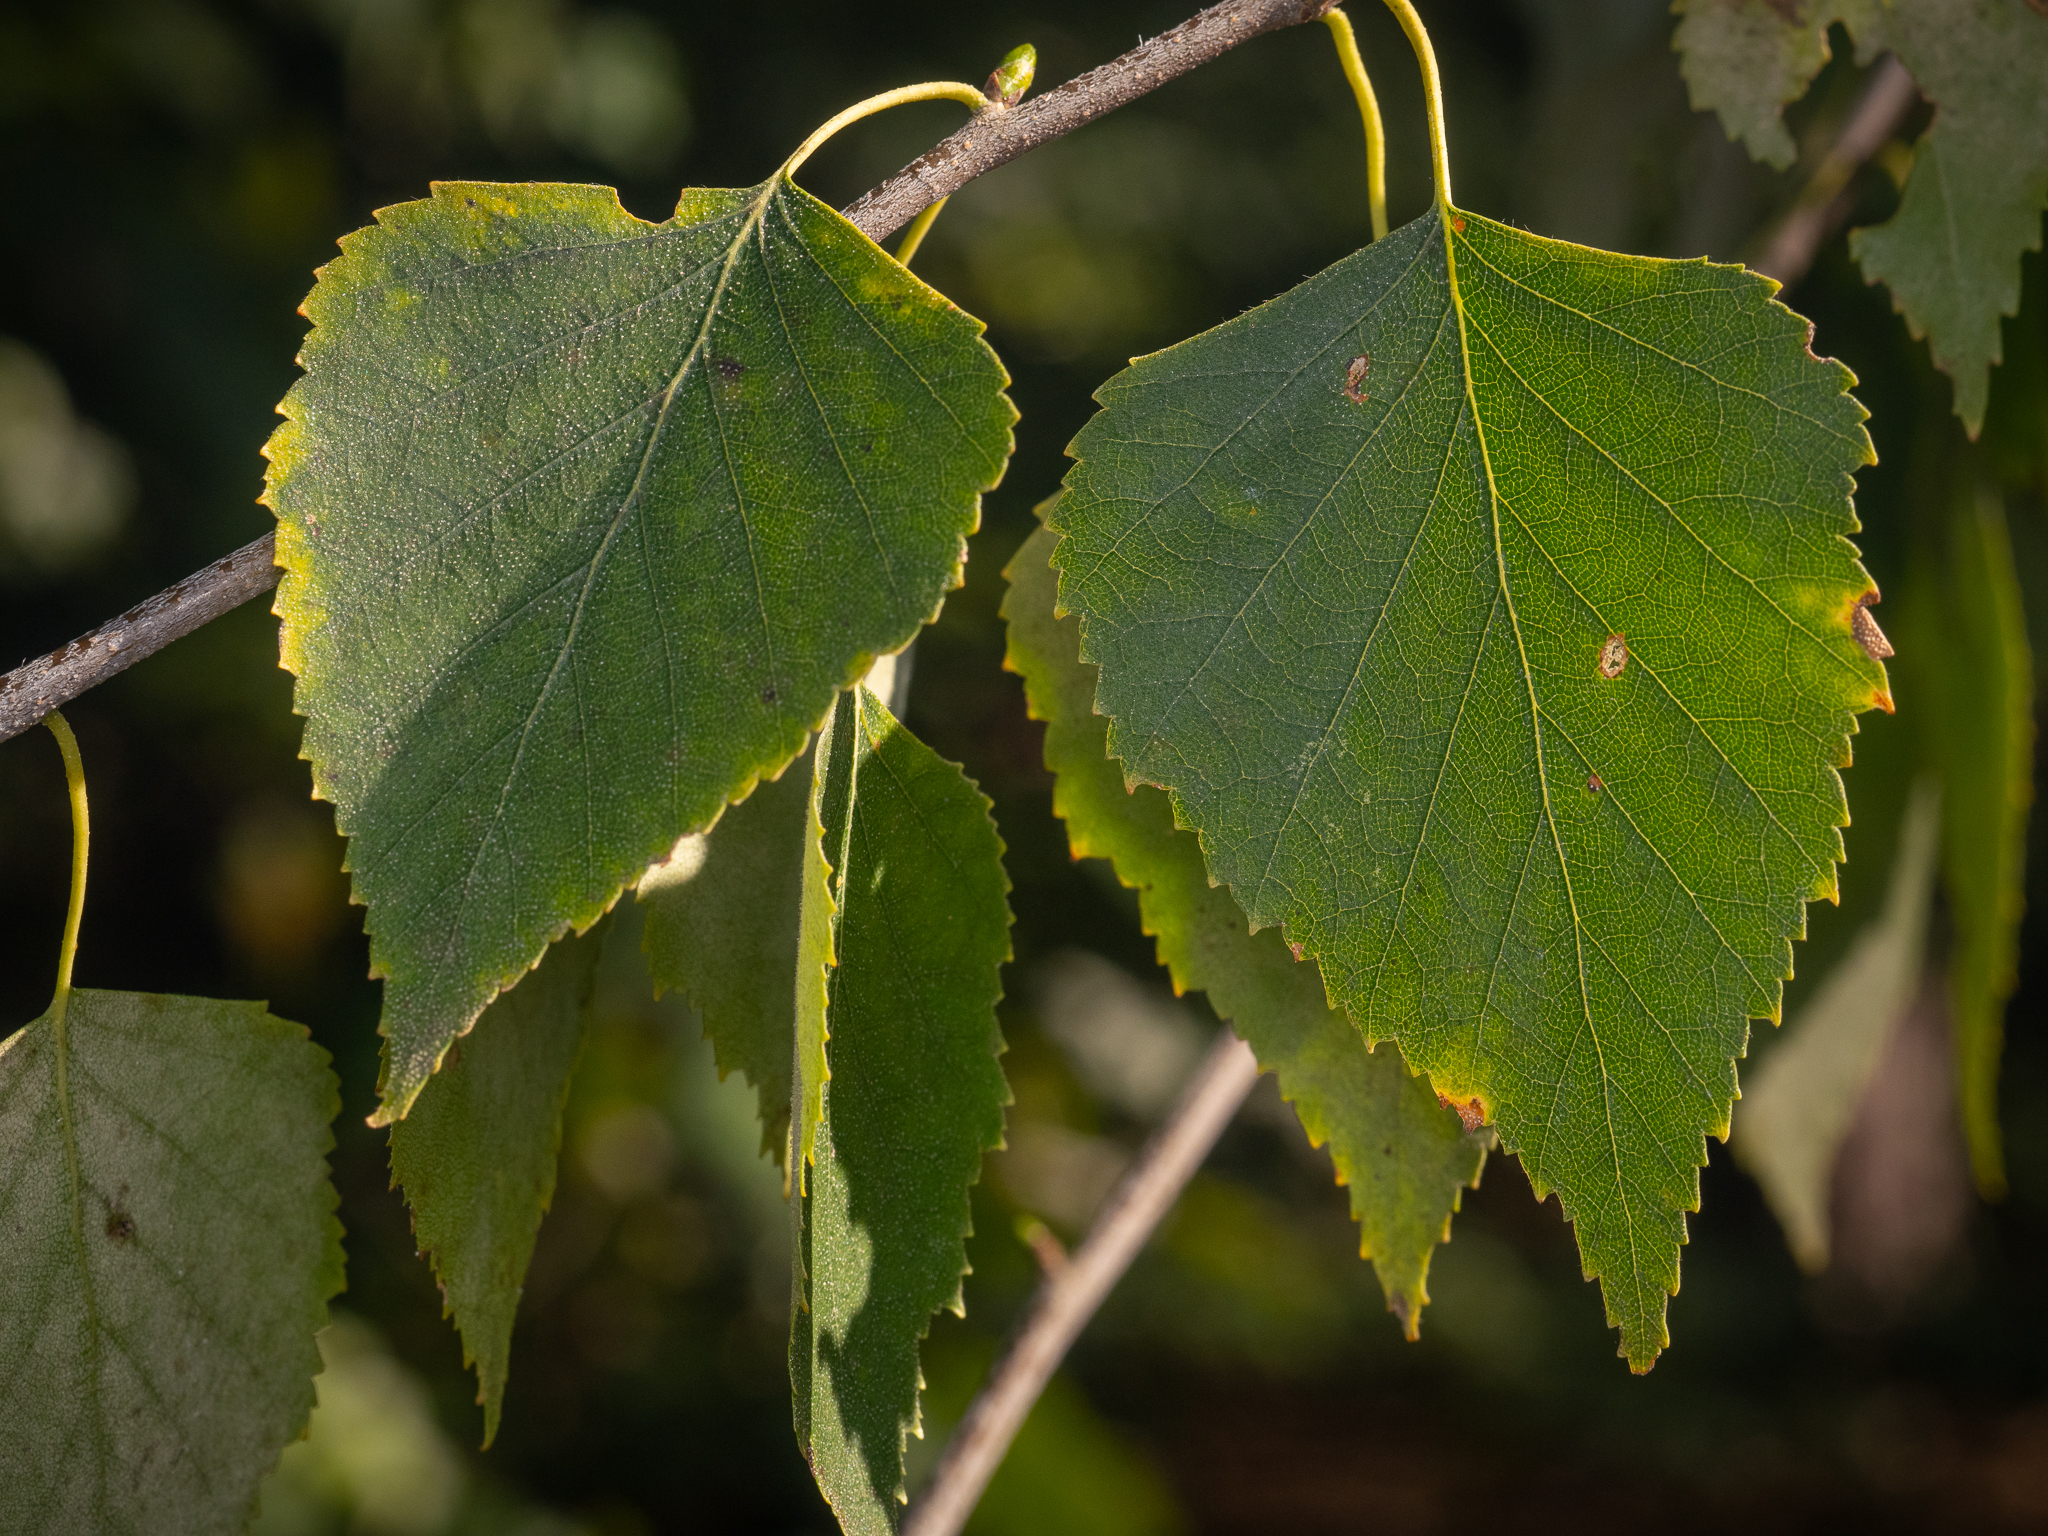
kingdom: Plantae
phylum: Tracheophyta
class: Magnoliopsida
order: Fagales
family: Betulaceae
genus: Betula
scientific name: Betula pendula
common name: Silver birch
